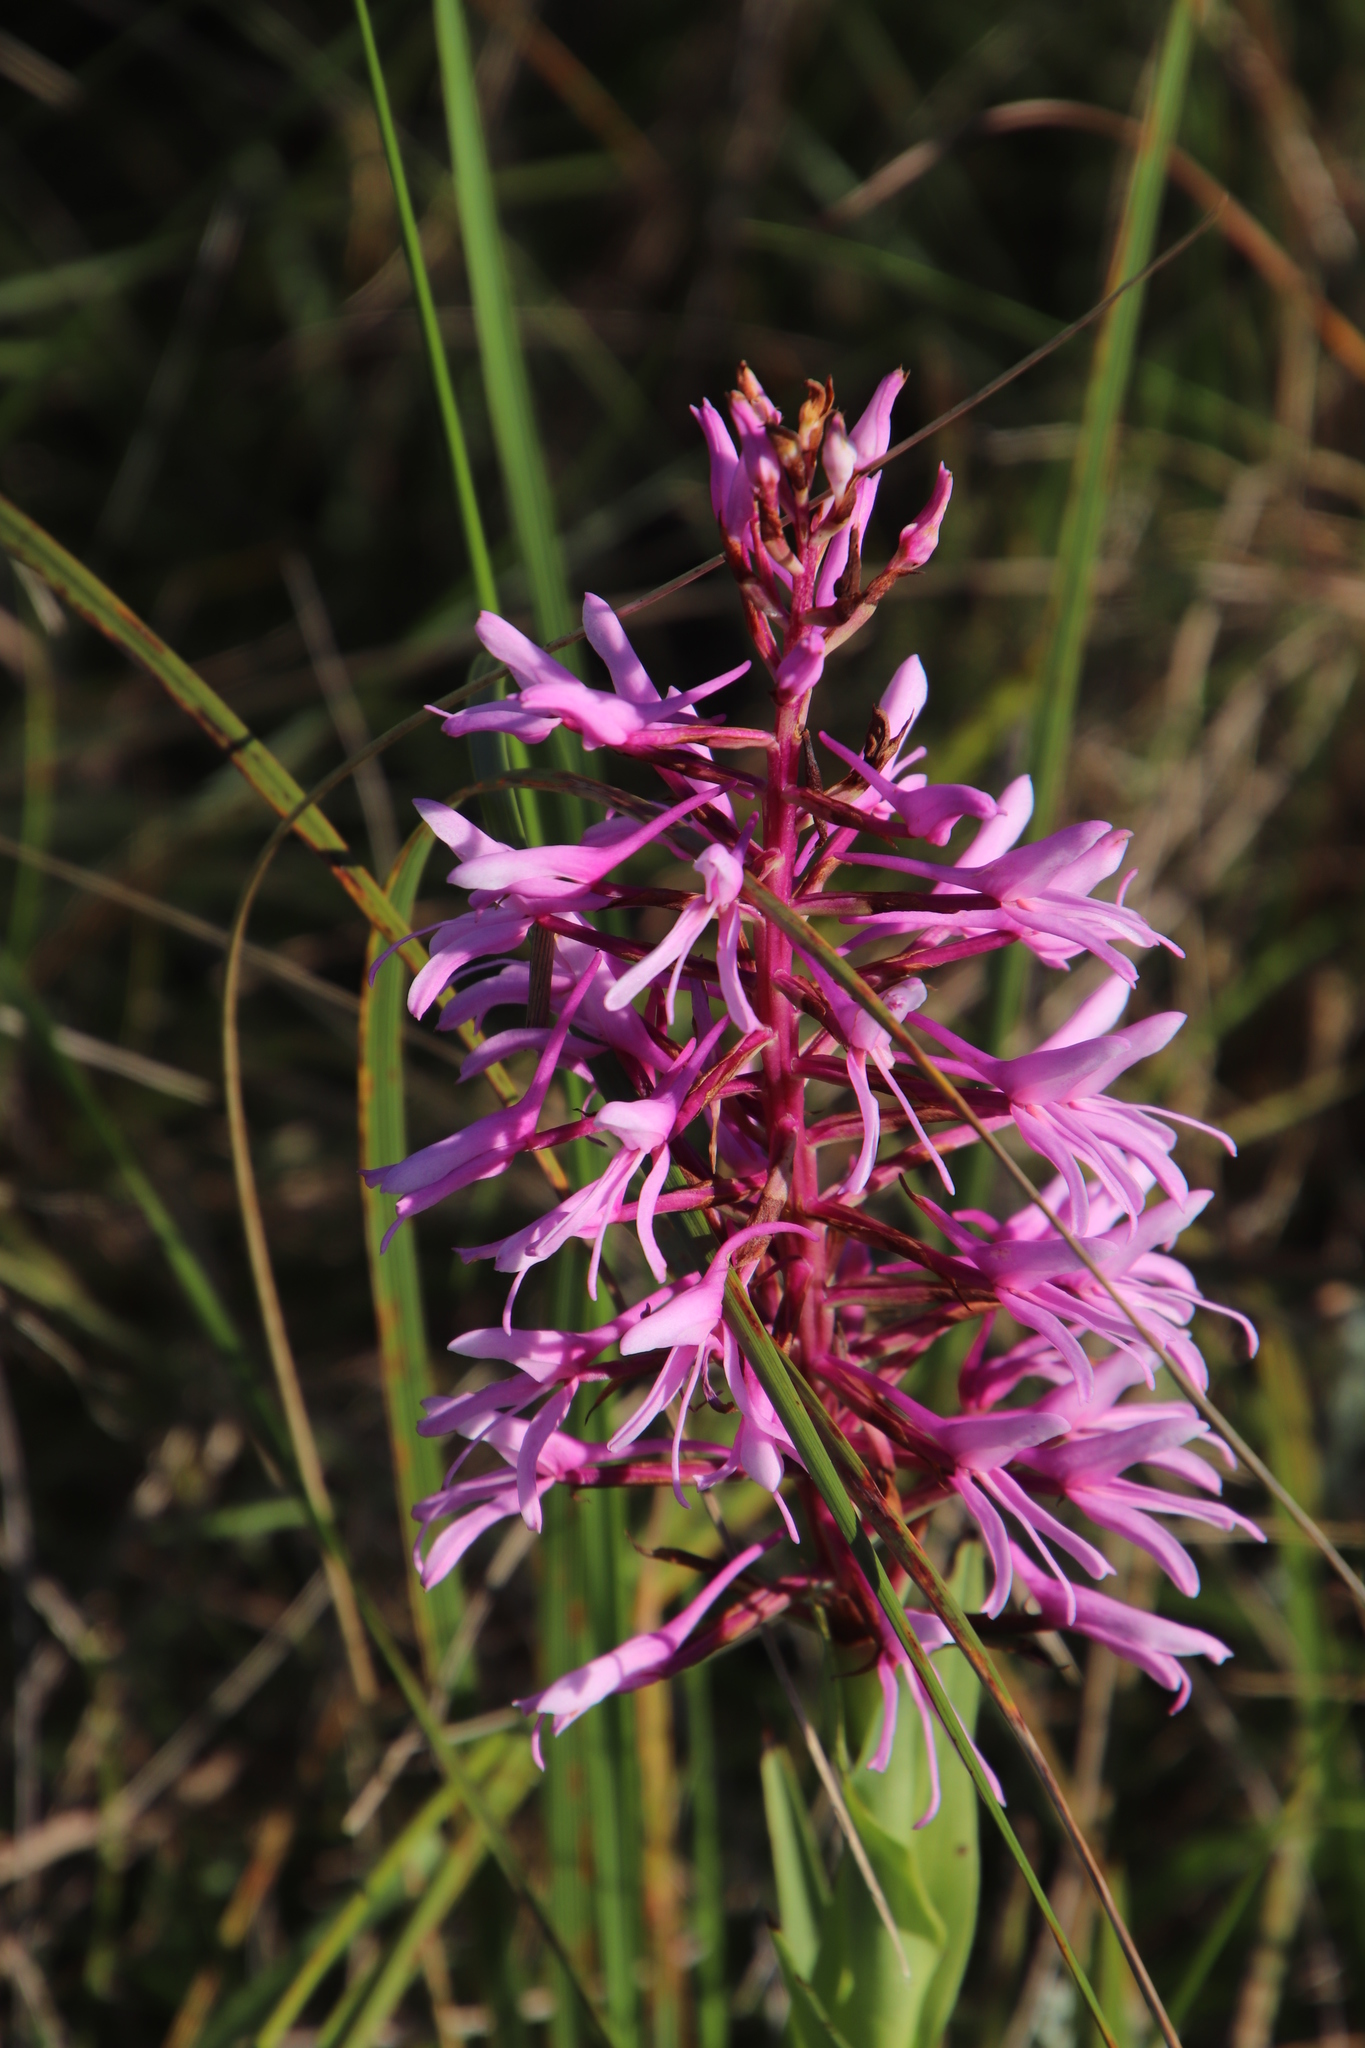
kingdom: Plantae
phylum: Tracheophyta
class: Liliopsida
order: Asparagales
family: Orchidaceae
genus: Disa
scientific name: Disa nervosa
